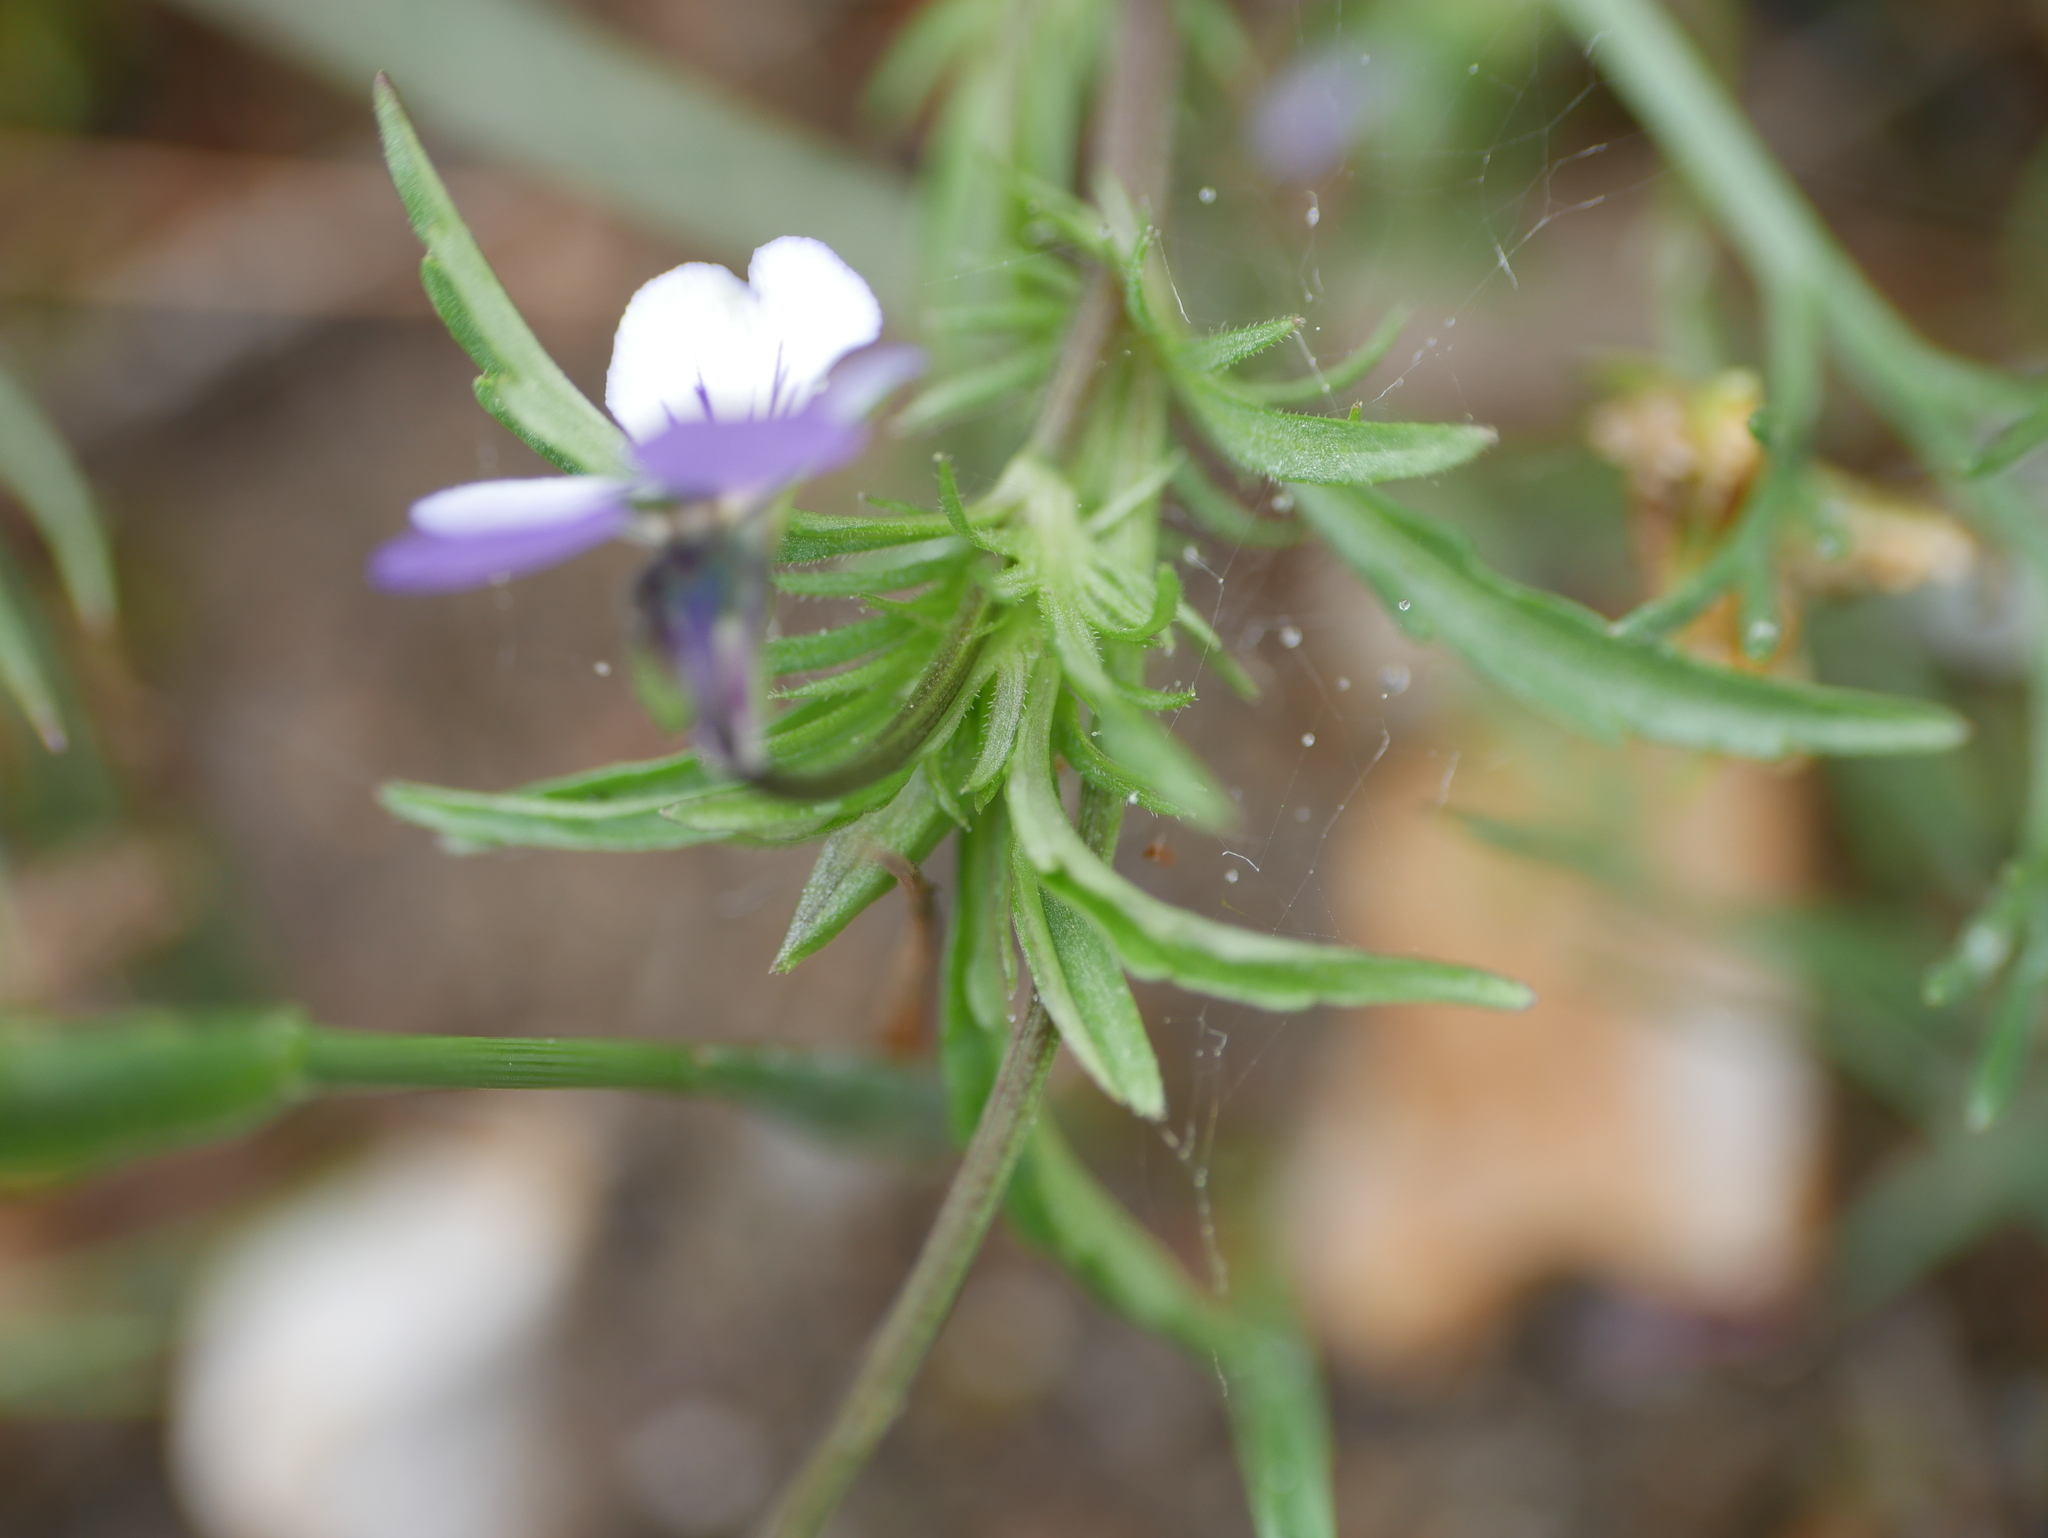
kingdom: Plantae
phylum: Tracheophyta
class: Magnoliopsida
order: Malpighiales
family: Violaceae
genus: Viola
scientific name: Viola tricolor
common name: Pansy
